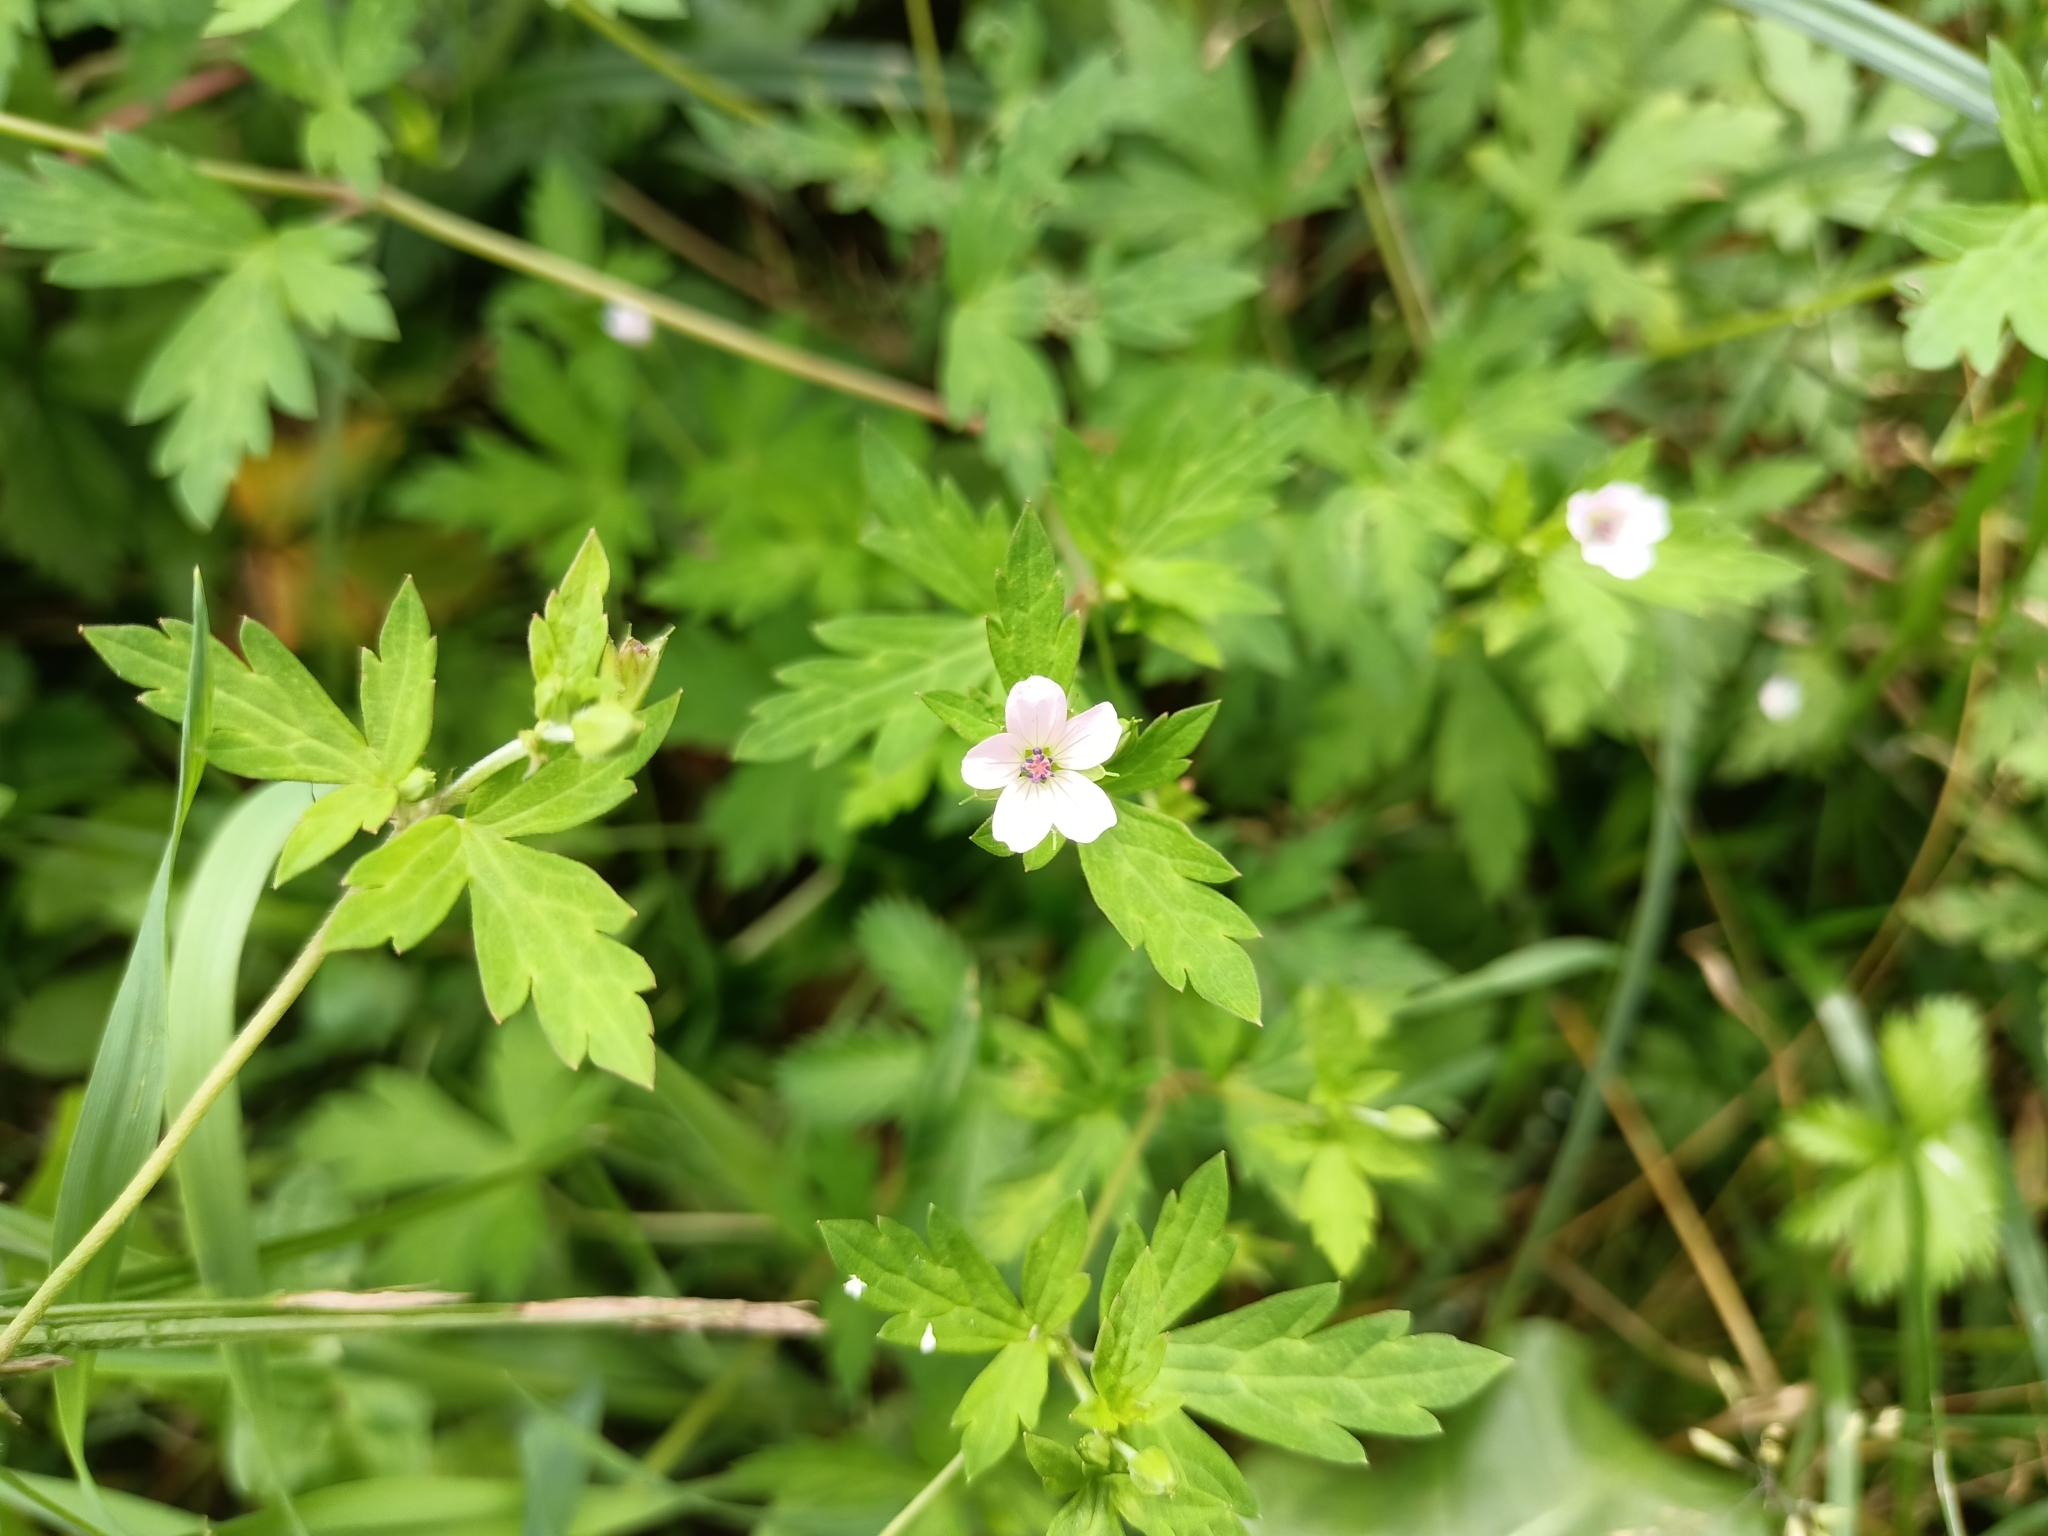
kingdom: Plantae
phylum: Tracheophyta
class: Magnoliopsida
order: Geraniales
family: Geraniaceae
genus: Geranium
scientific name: Geranium sibiricum
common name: Siberian crane's-bill
